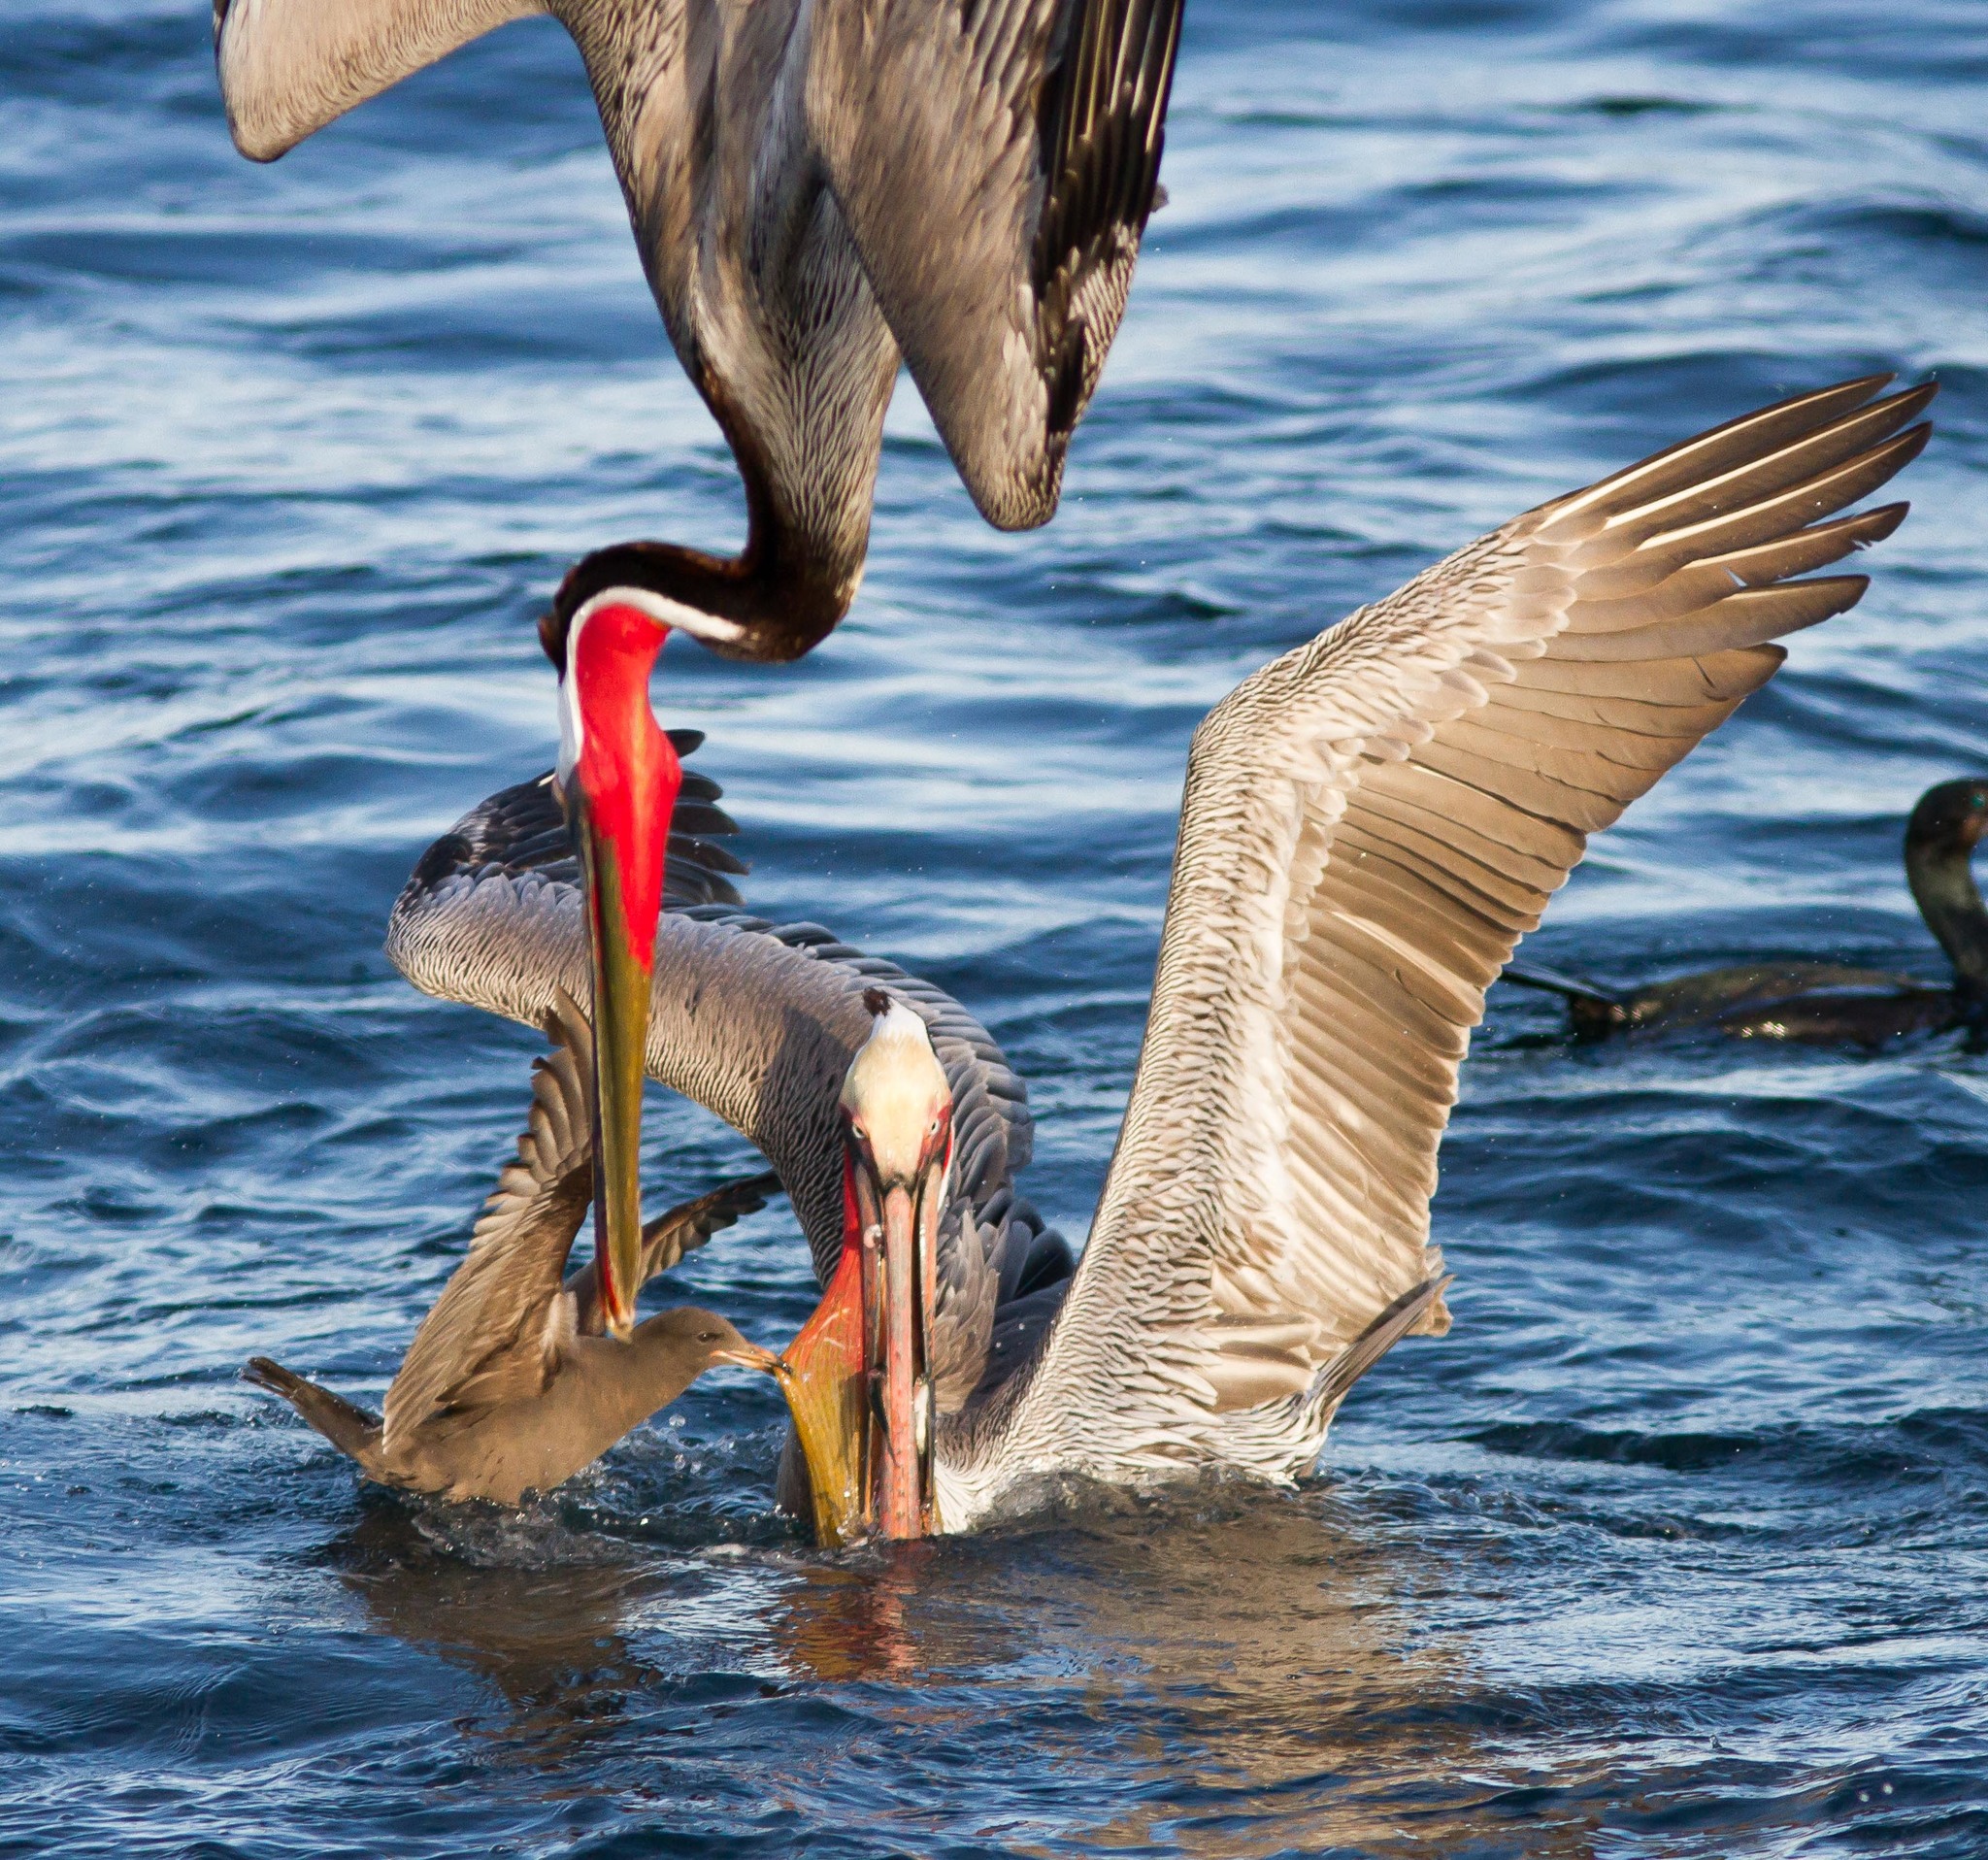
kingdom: Animalia
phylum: Chordata
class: Aves
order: Pelecaniformes
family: Pelecanidae
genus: Pelecanus
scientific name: Pelecanus occidentalis
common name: Brown pelican
